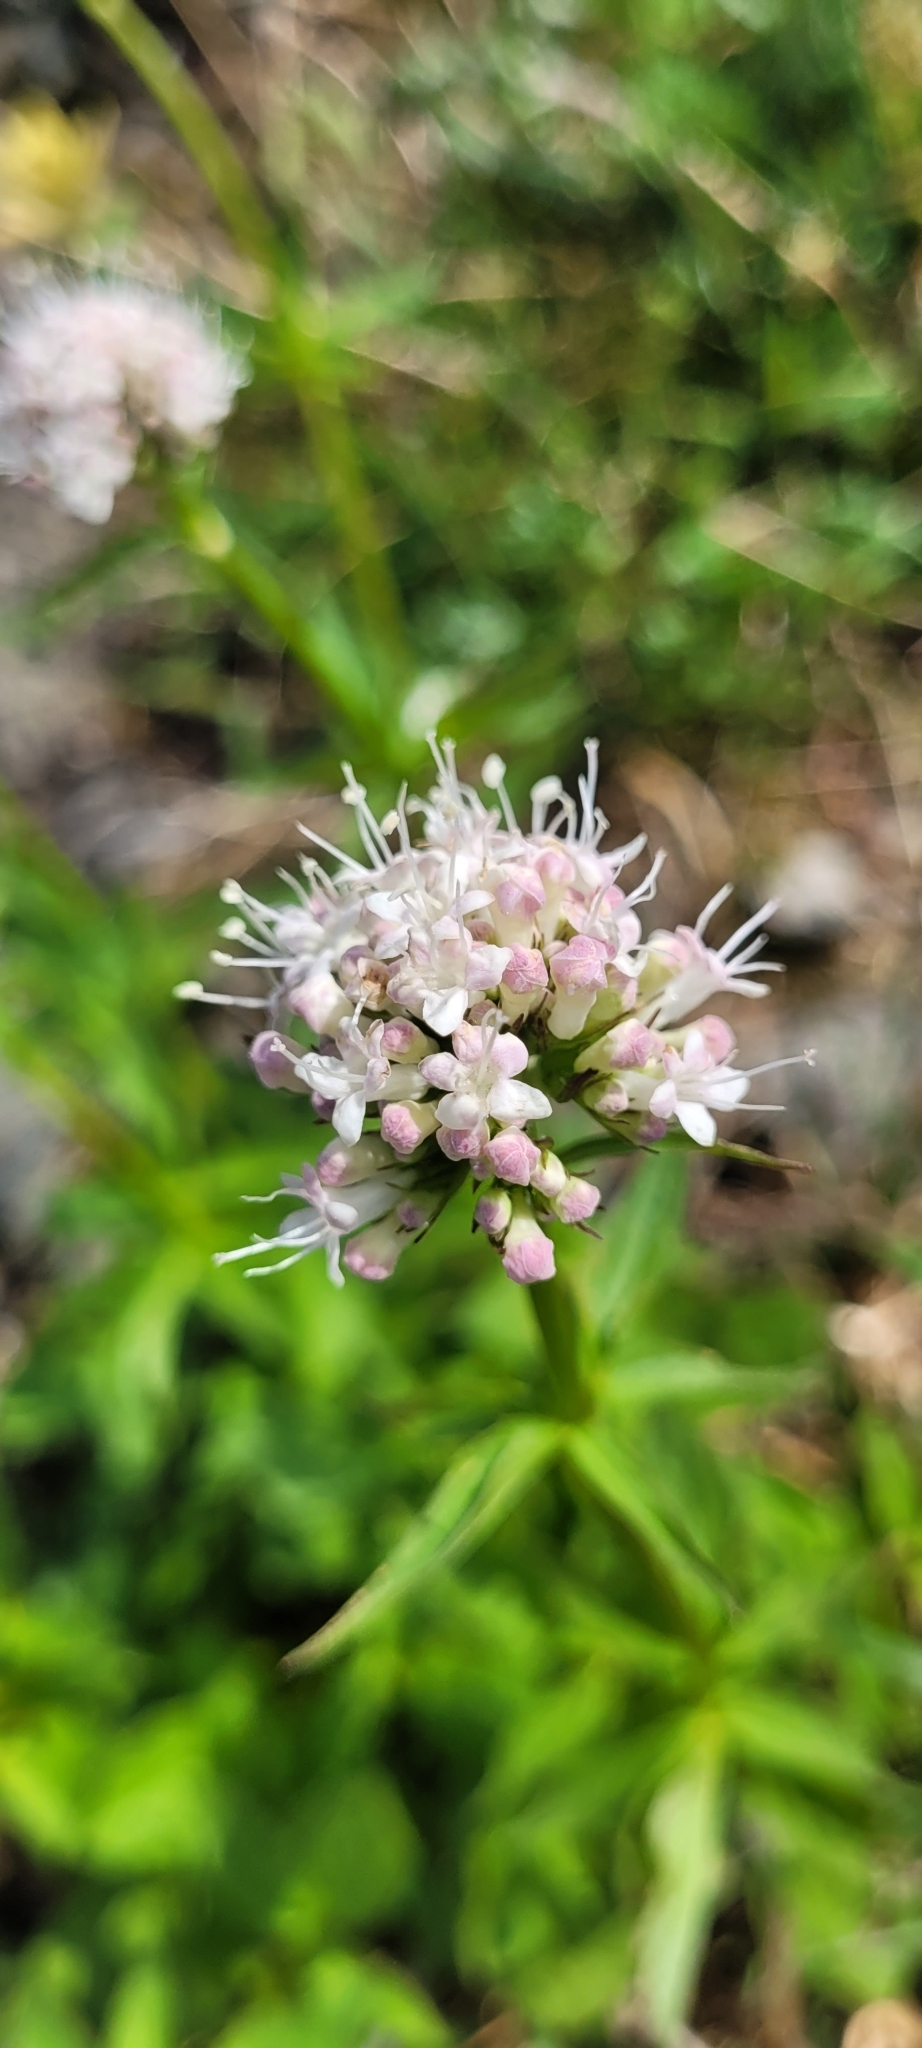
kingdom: Plantae
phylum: Tracheophyta
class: Magnoliopsida
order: Dipsacales
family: Caprifoliaceae
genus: Valeriana
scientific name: Valeriana sitchensis
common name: Pacific valerian
